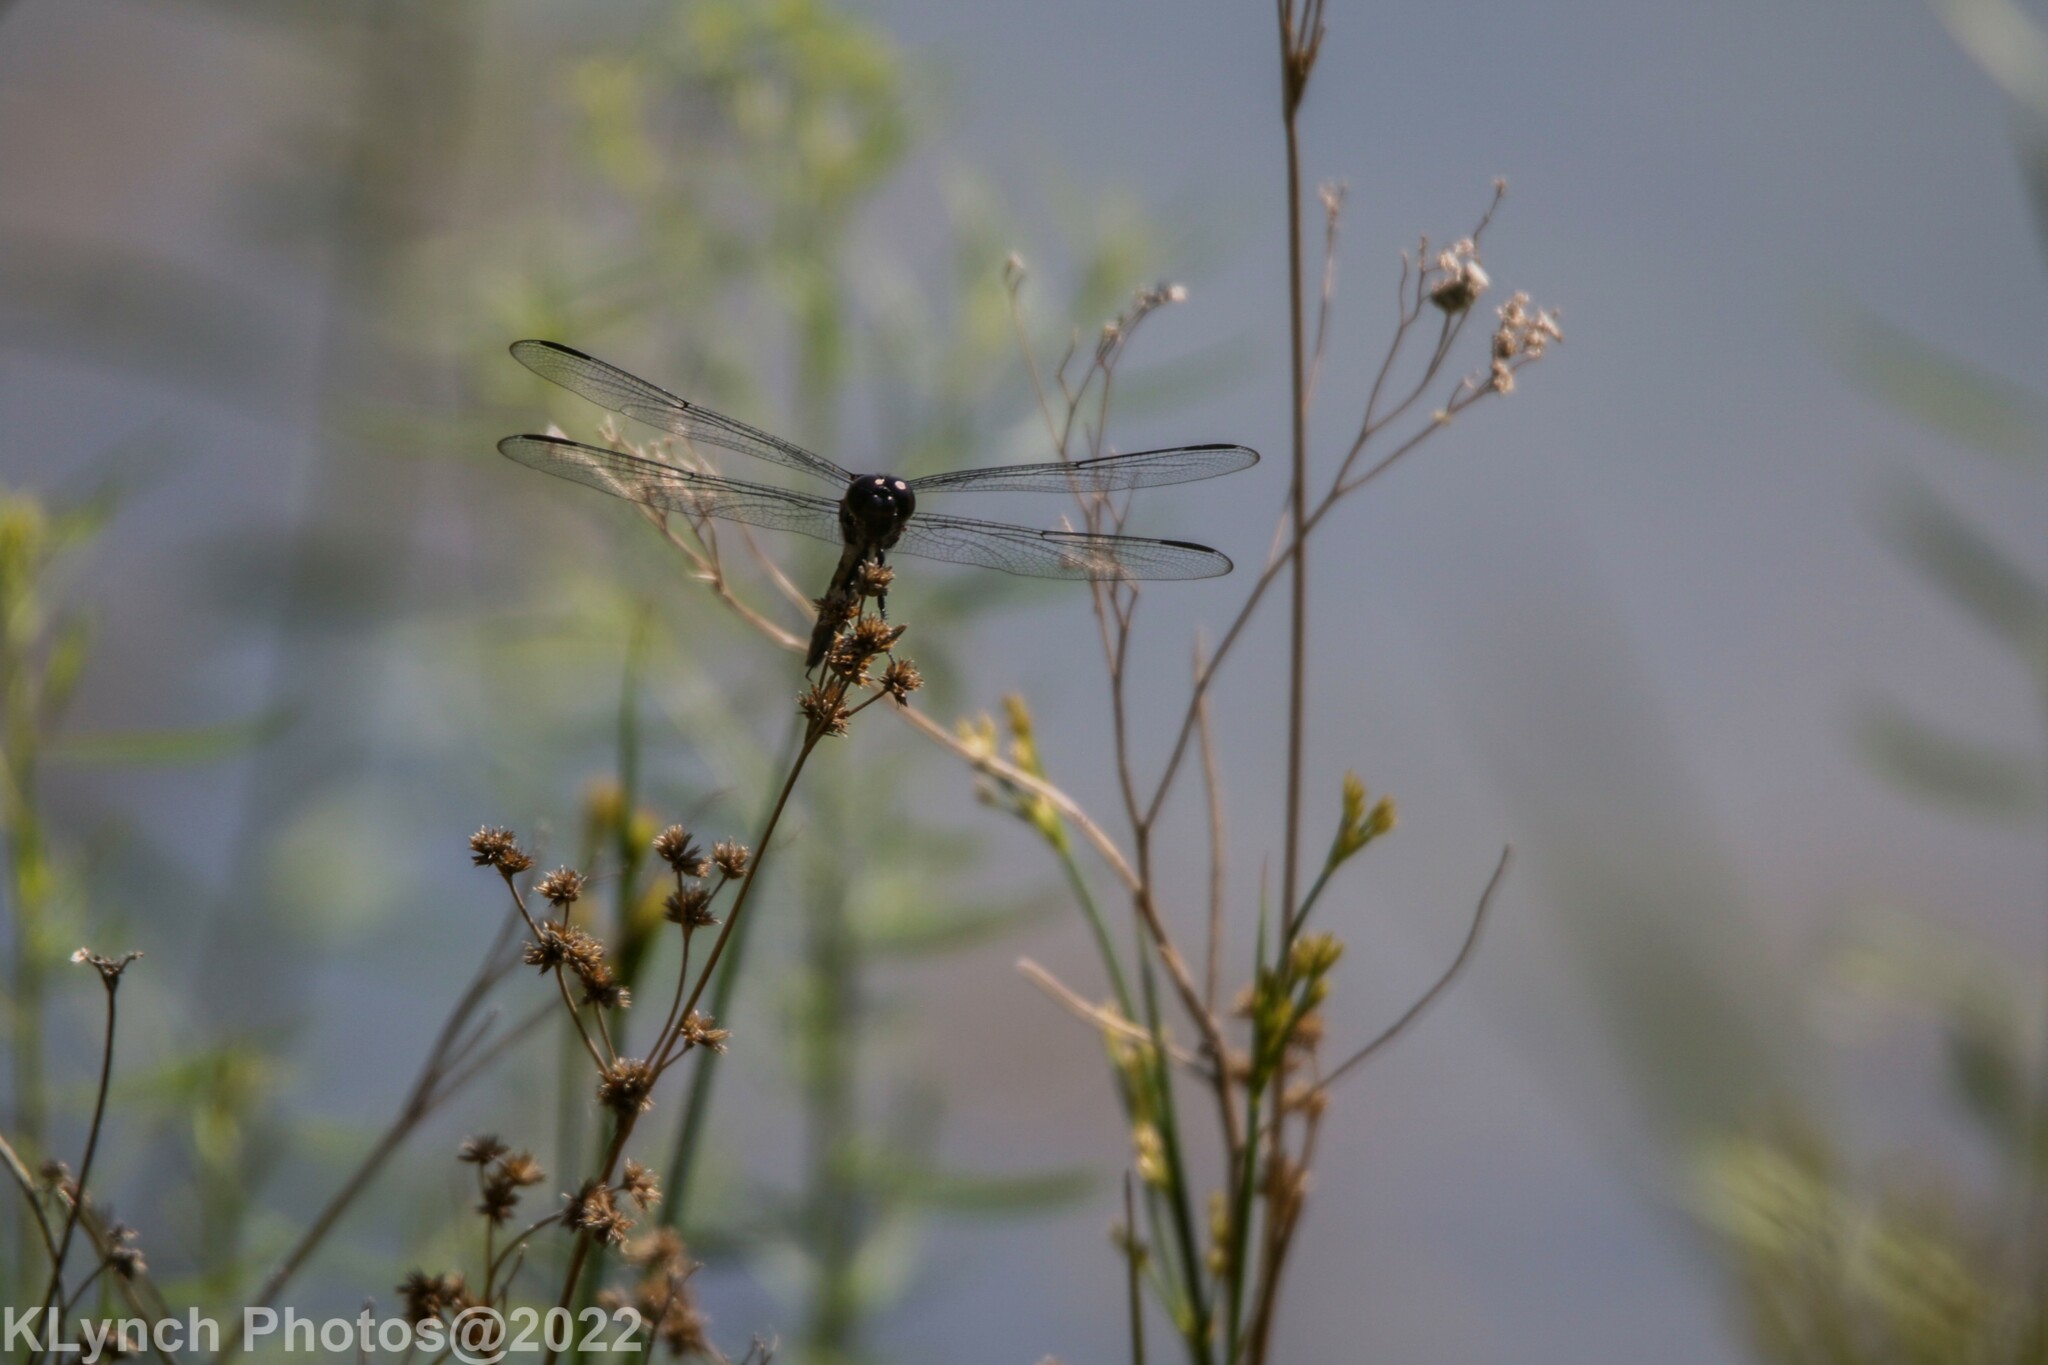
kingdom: Animalia
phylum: Arthropoda
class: Insecta
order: Odonata
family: Libellulidae
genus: Libellula
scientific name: Libellula incesta
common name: Slaty skimmer
